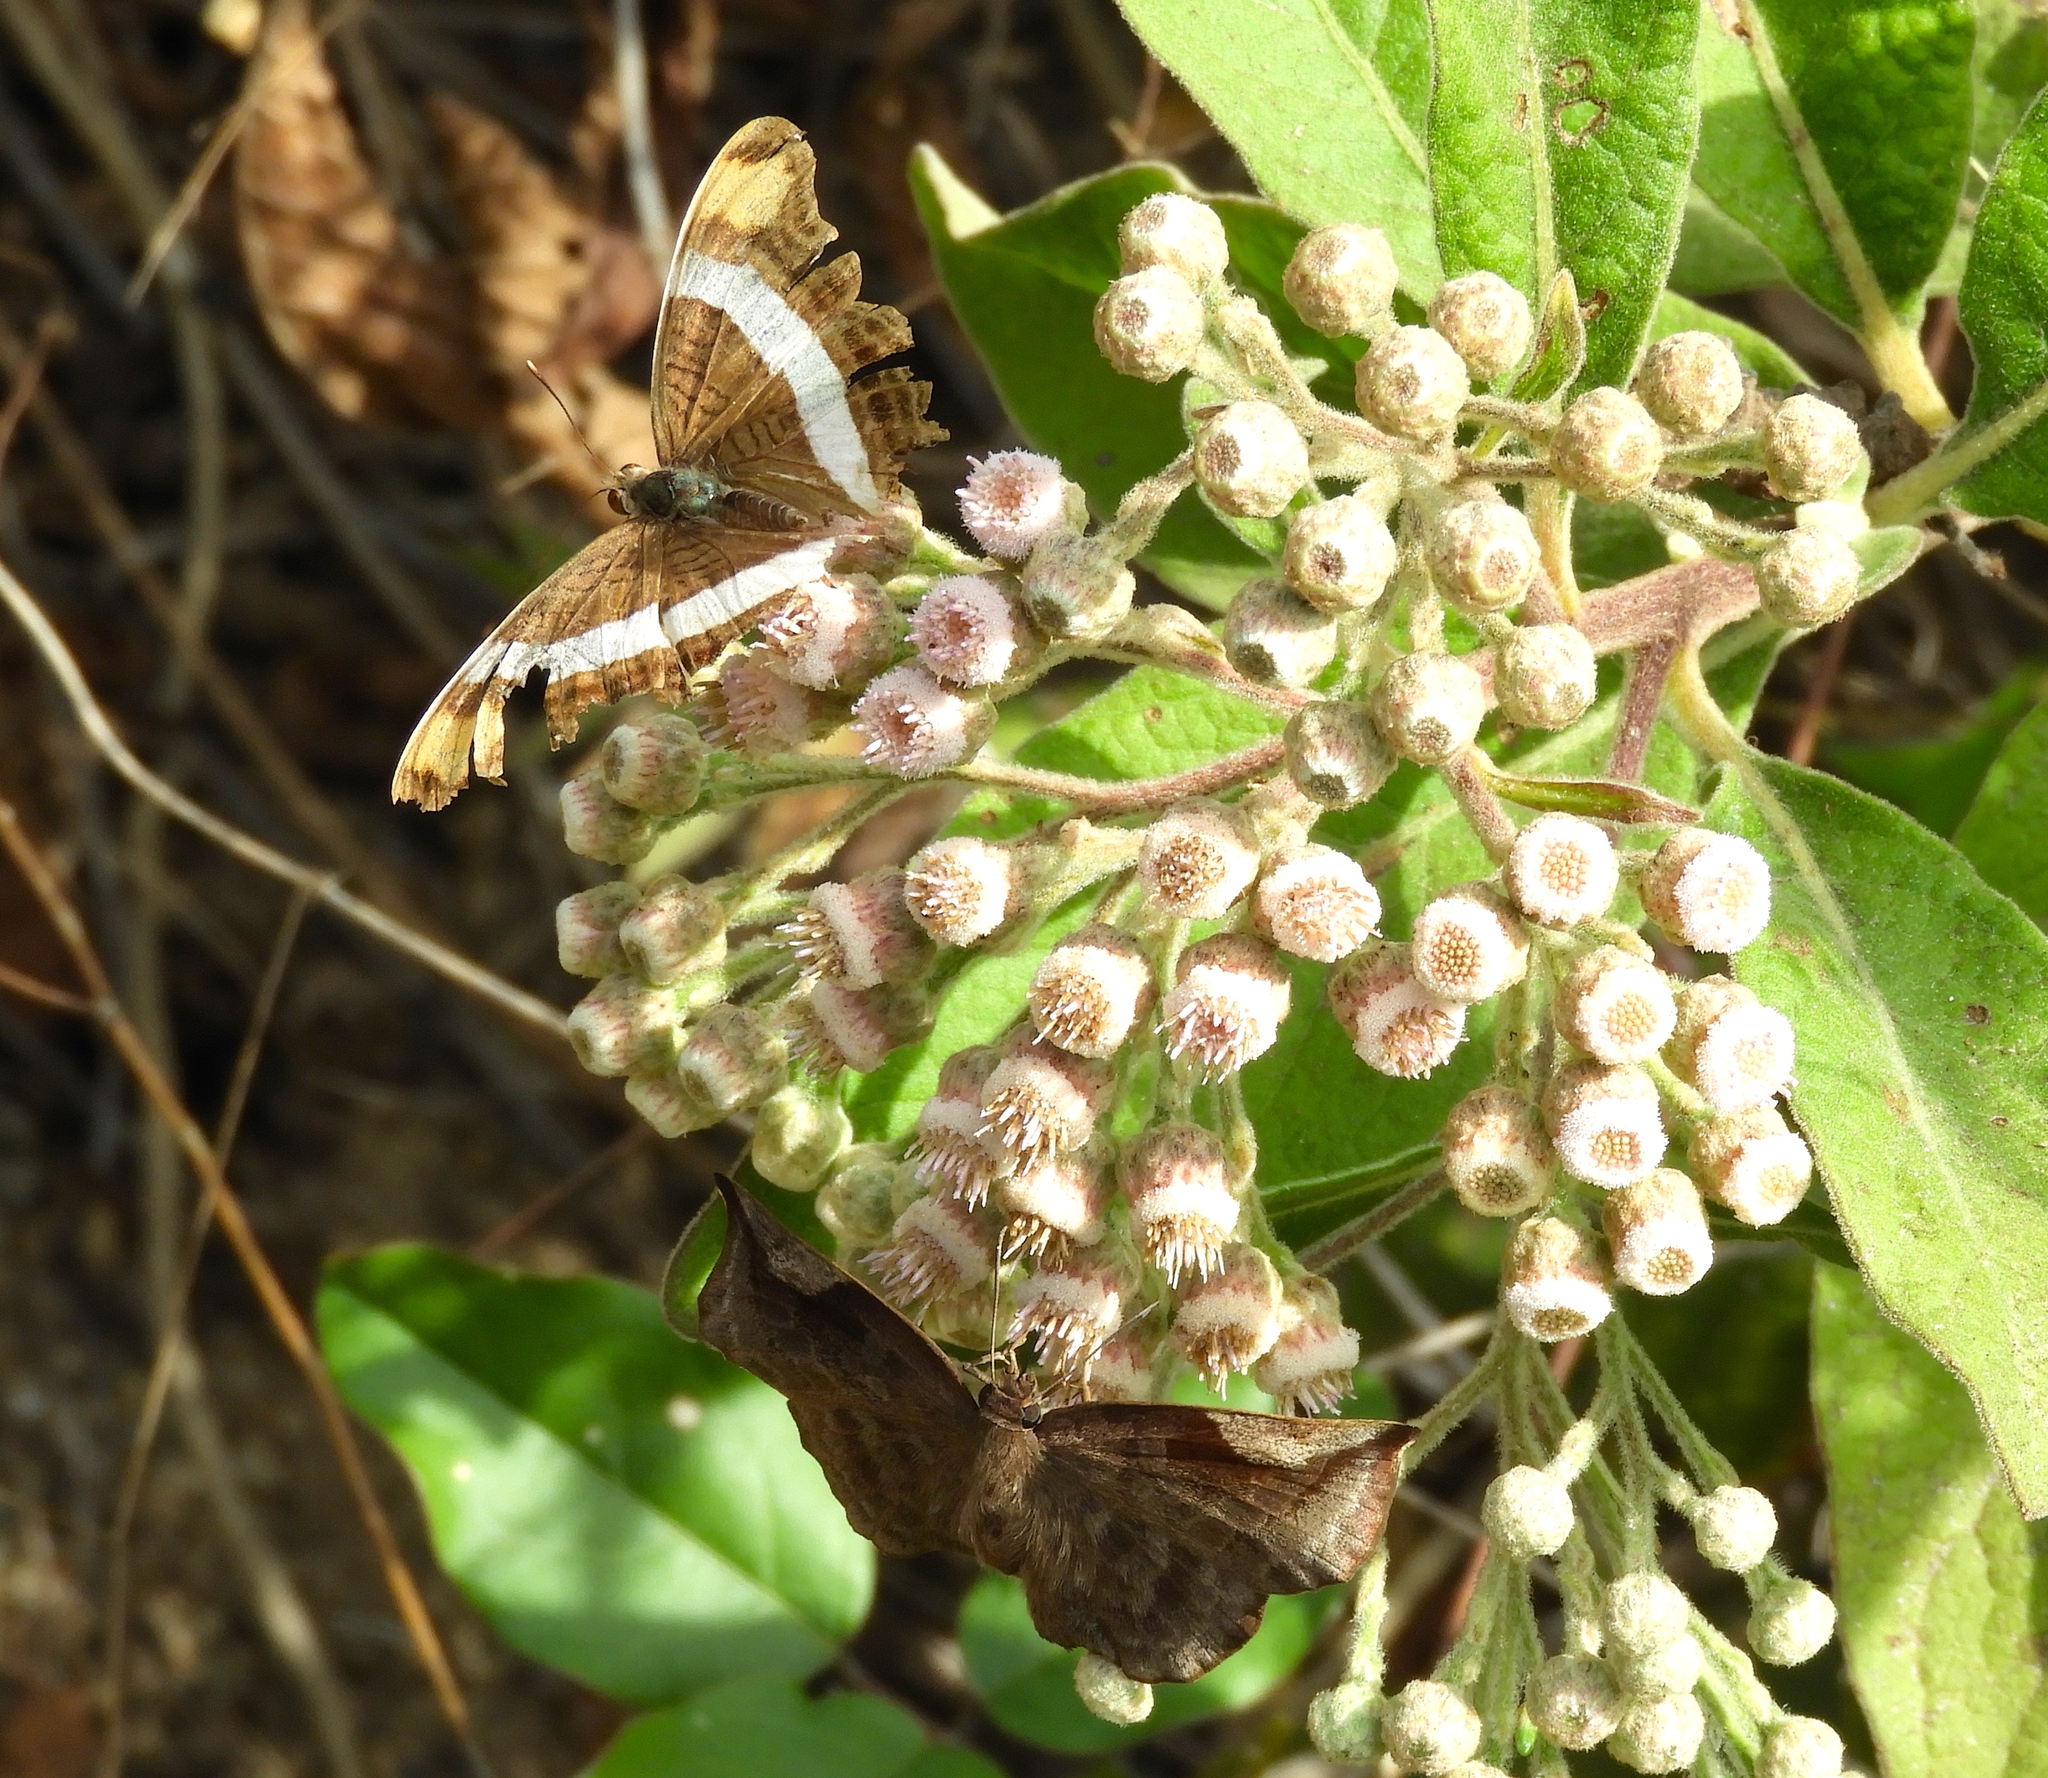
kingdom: Animalia
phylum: Arthropoda
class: Insecta
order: Lepidoptera
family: Nymphalidae
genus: Limenitis
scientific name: Limenitis fessonia
